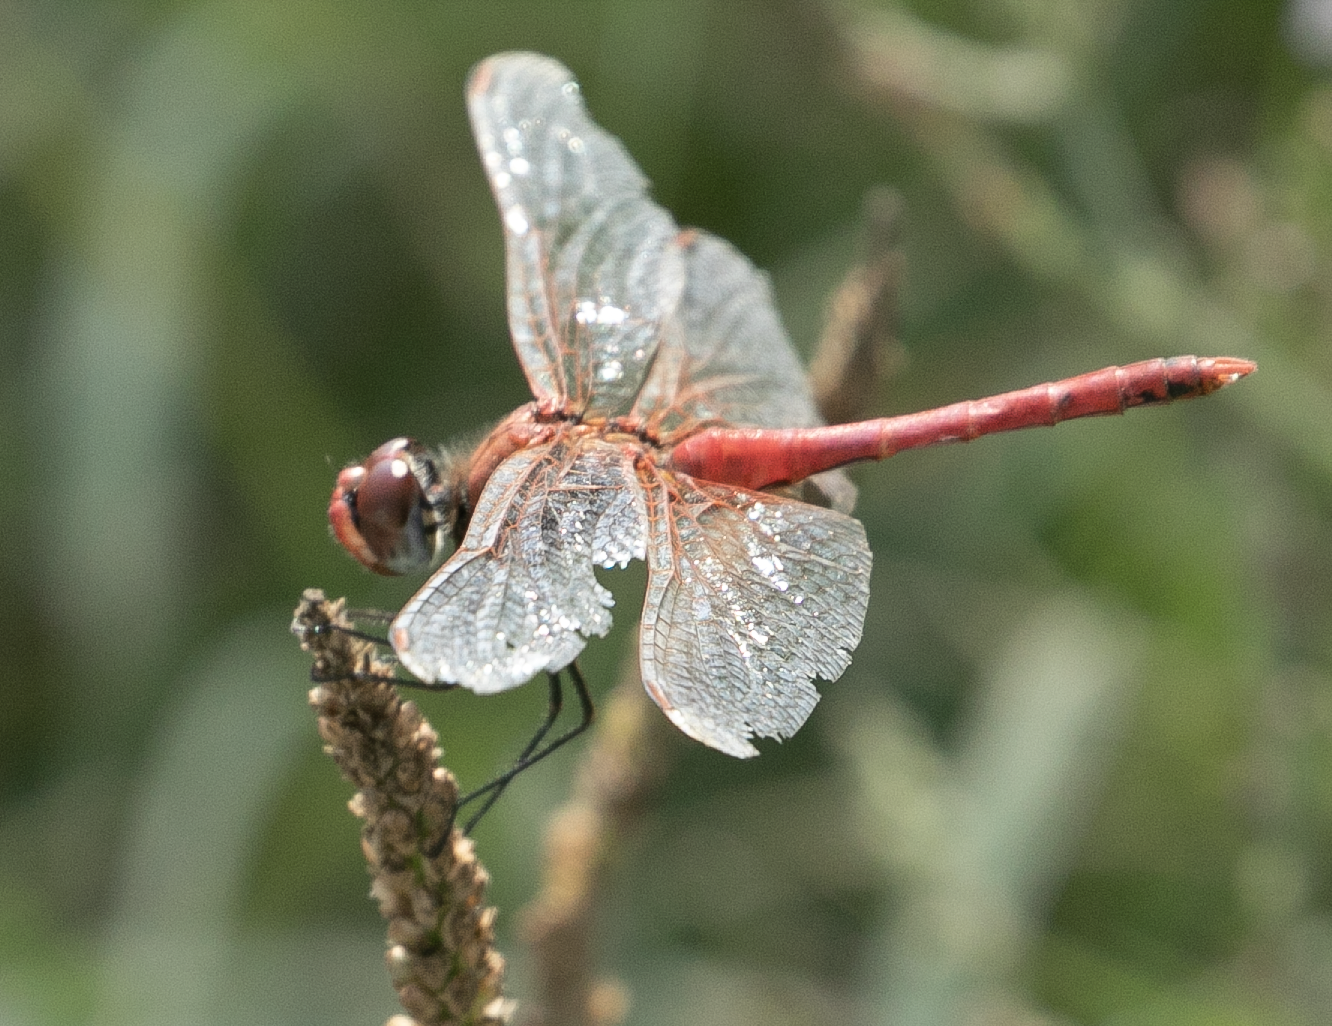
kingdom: Animalia
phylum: Arthropoda
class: Insecta
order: Odonata
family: Libellulidae
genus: Sympetrum
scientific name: Sympetrum fonscolombii
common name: Red-veined darter
